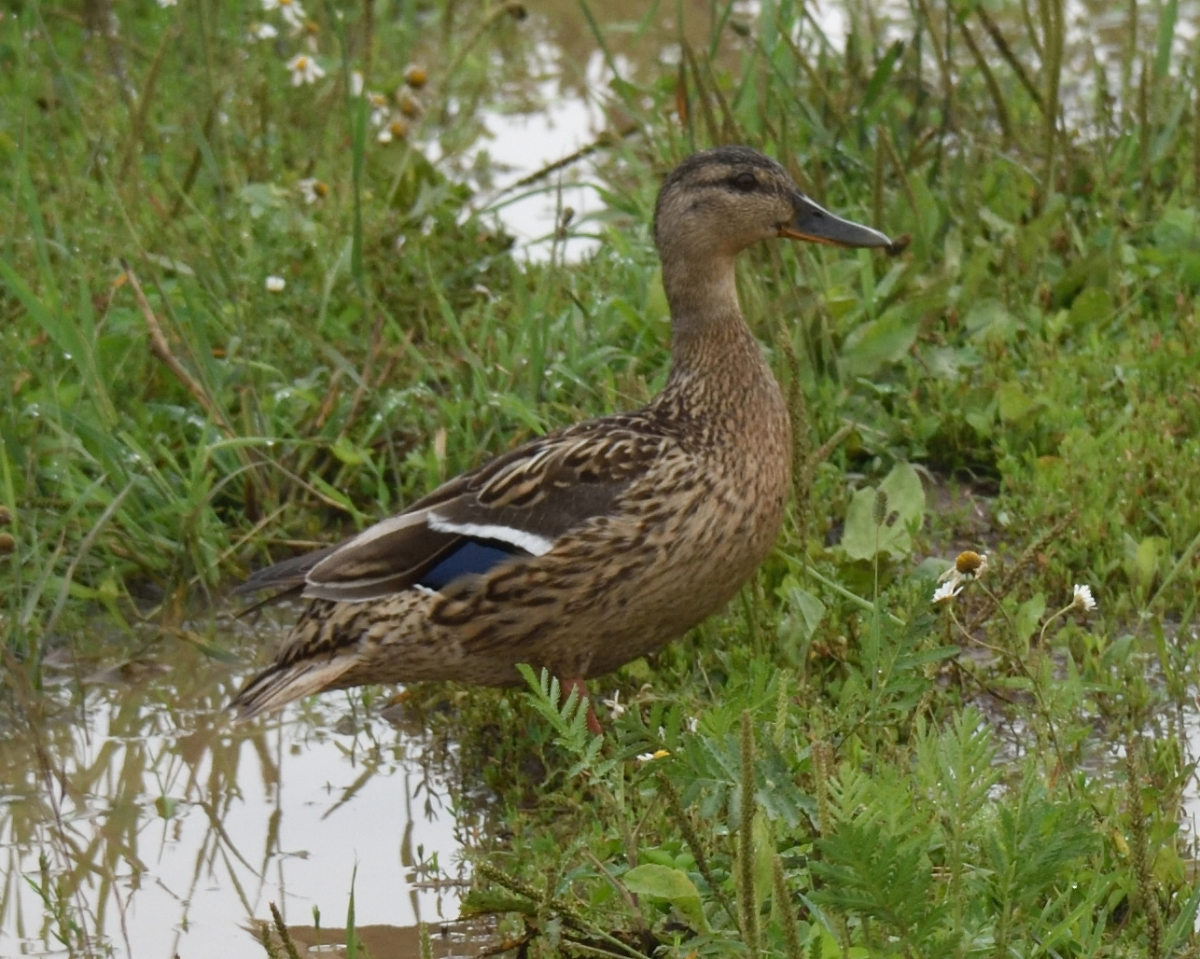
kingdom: Animalia
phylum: Chordata
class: Aves
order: Anseriformes
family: Anatidae
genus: Anas
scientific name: Anas platyrhynchos
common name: Mallard
